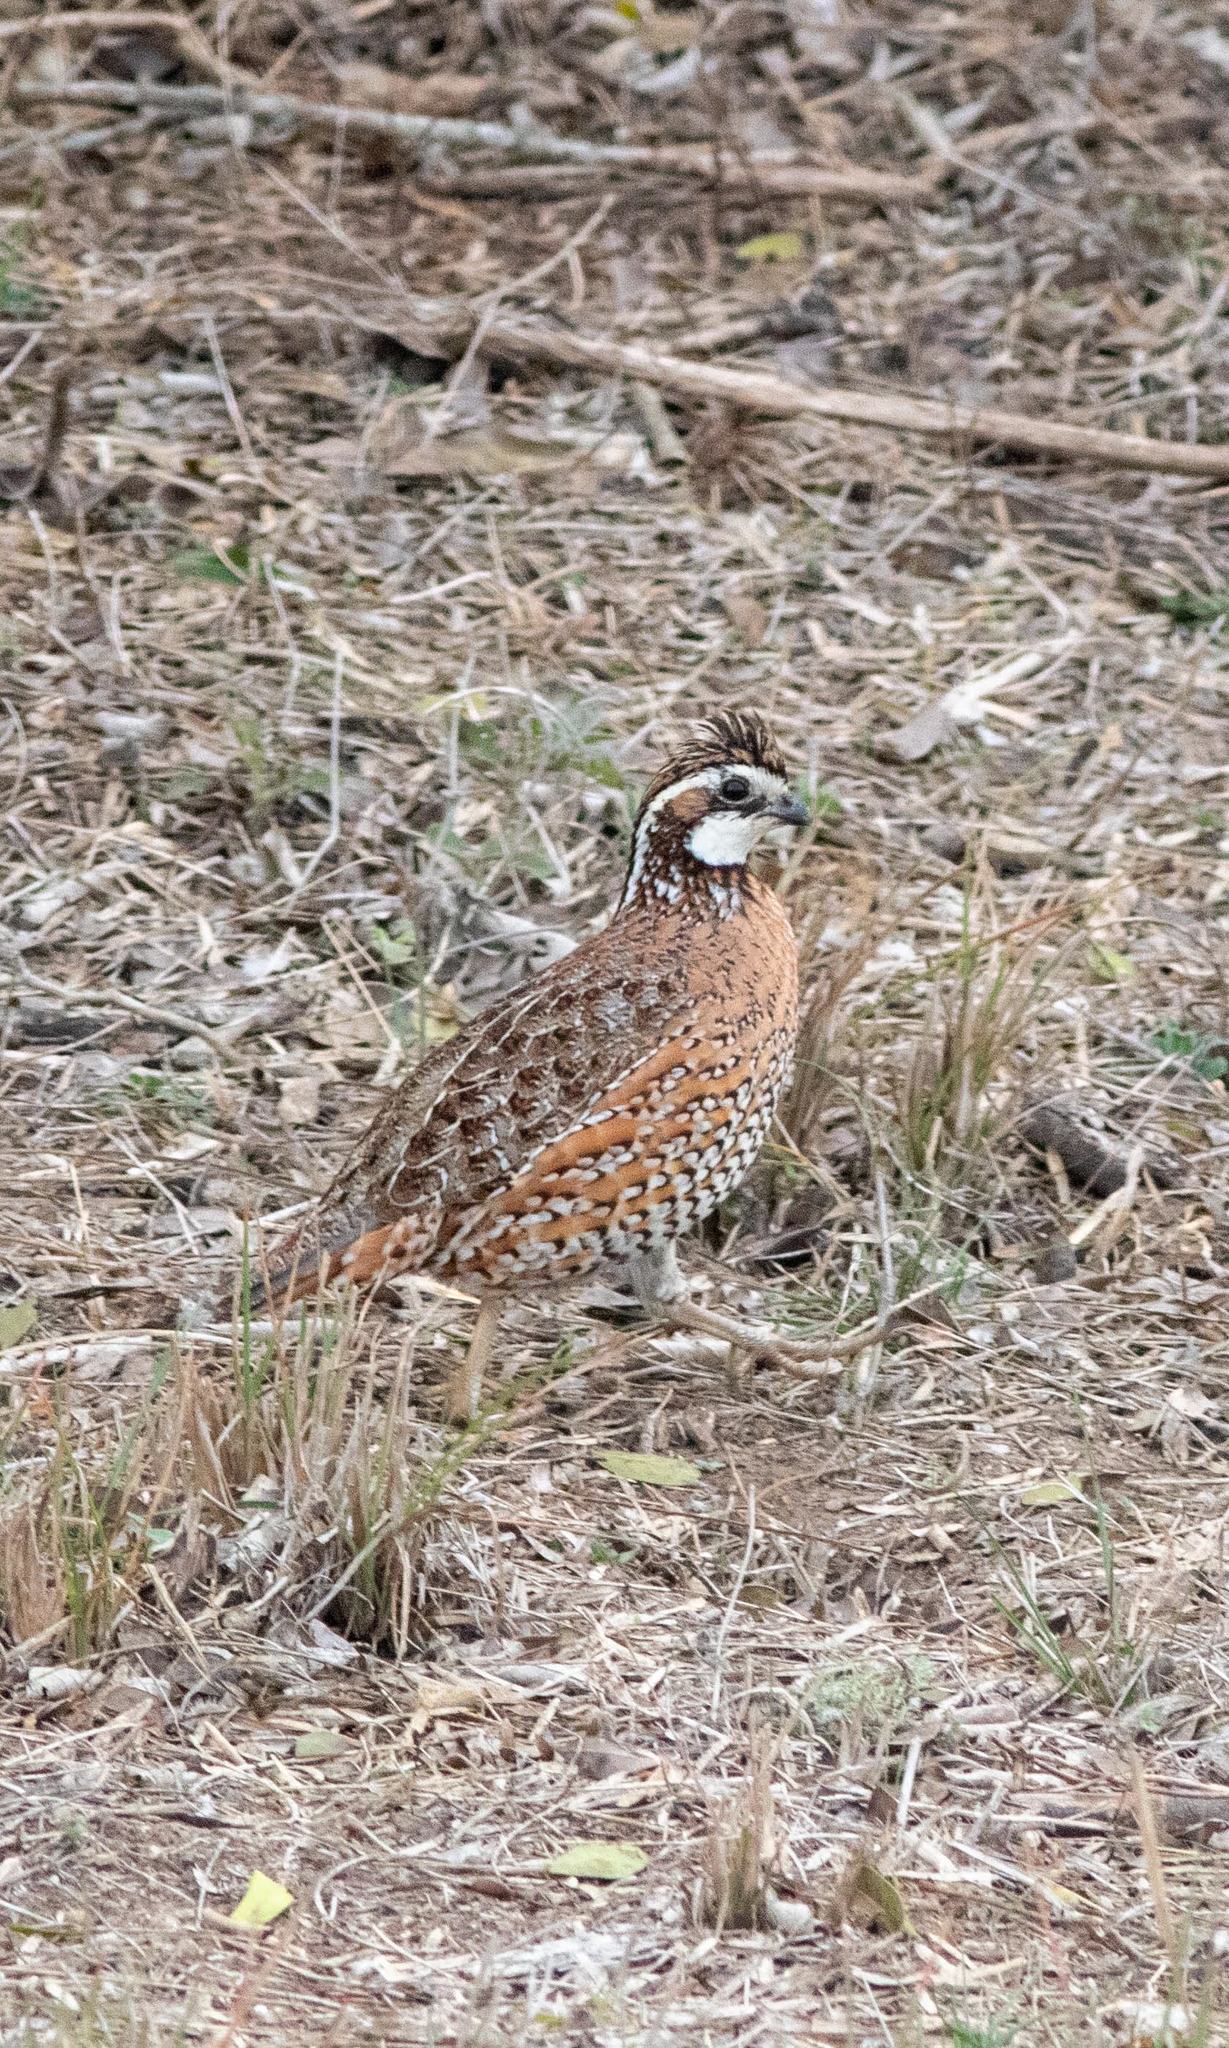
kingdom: Animalia
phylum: Chordata
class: Aves
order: Galliformes
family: Odontophoridae
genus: Colinus
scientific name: Colinus virginianus
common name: Northern bobwhite
